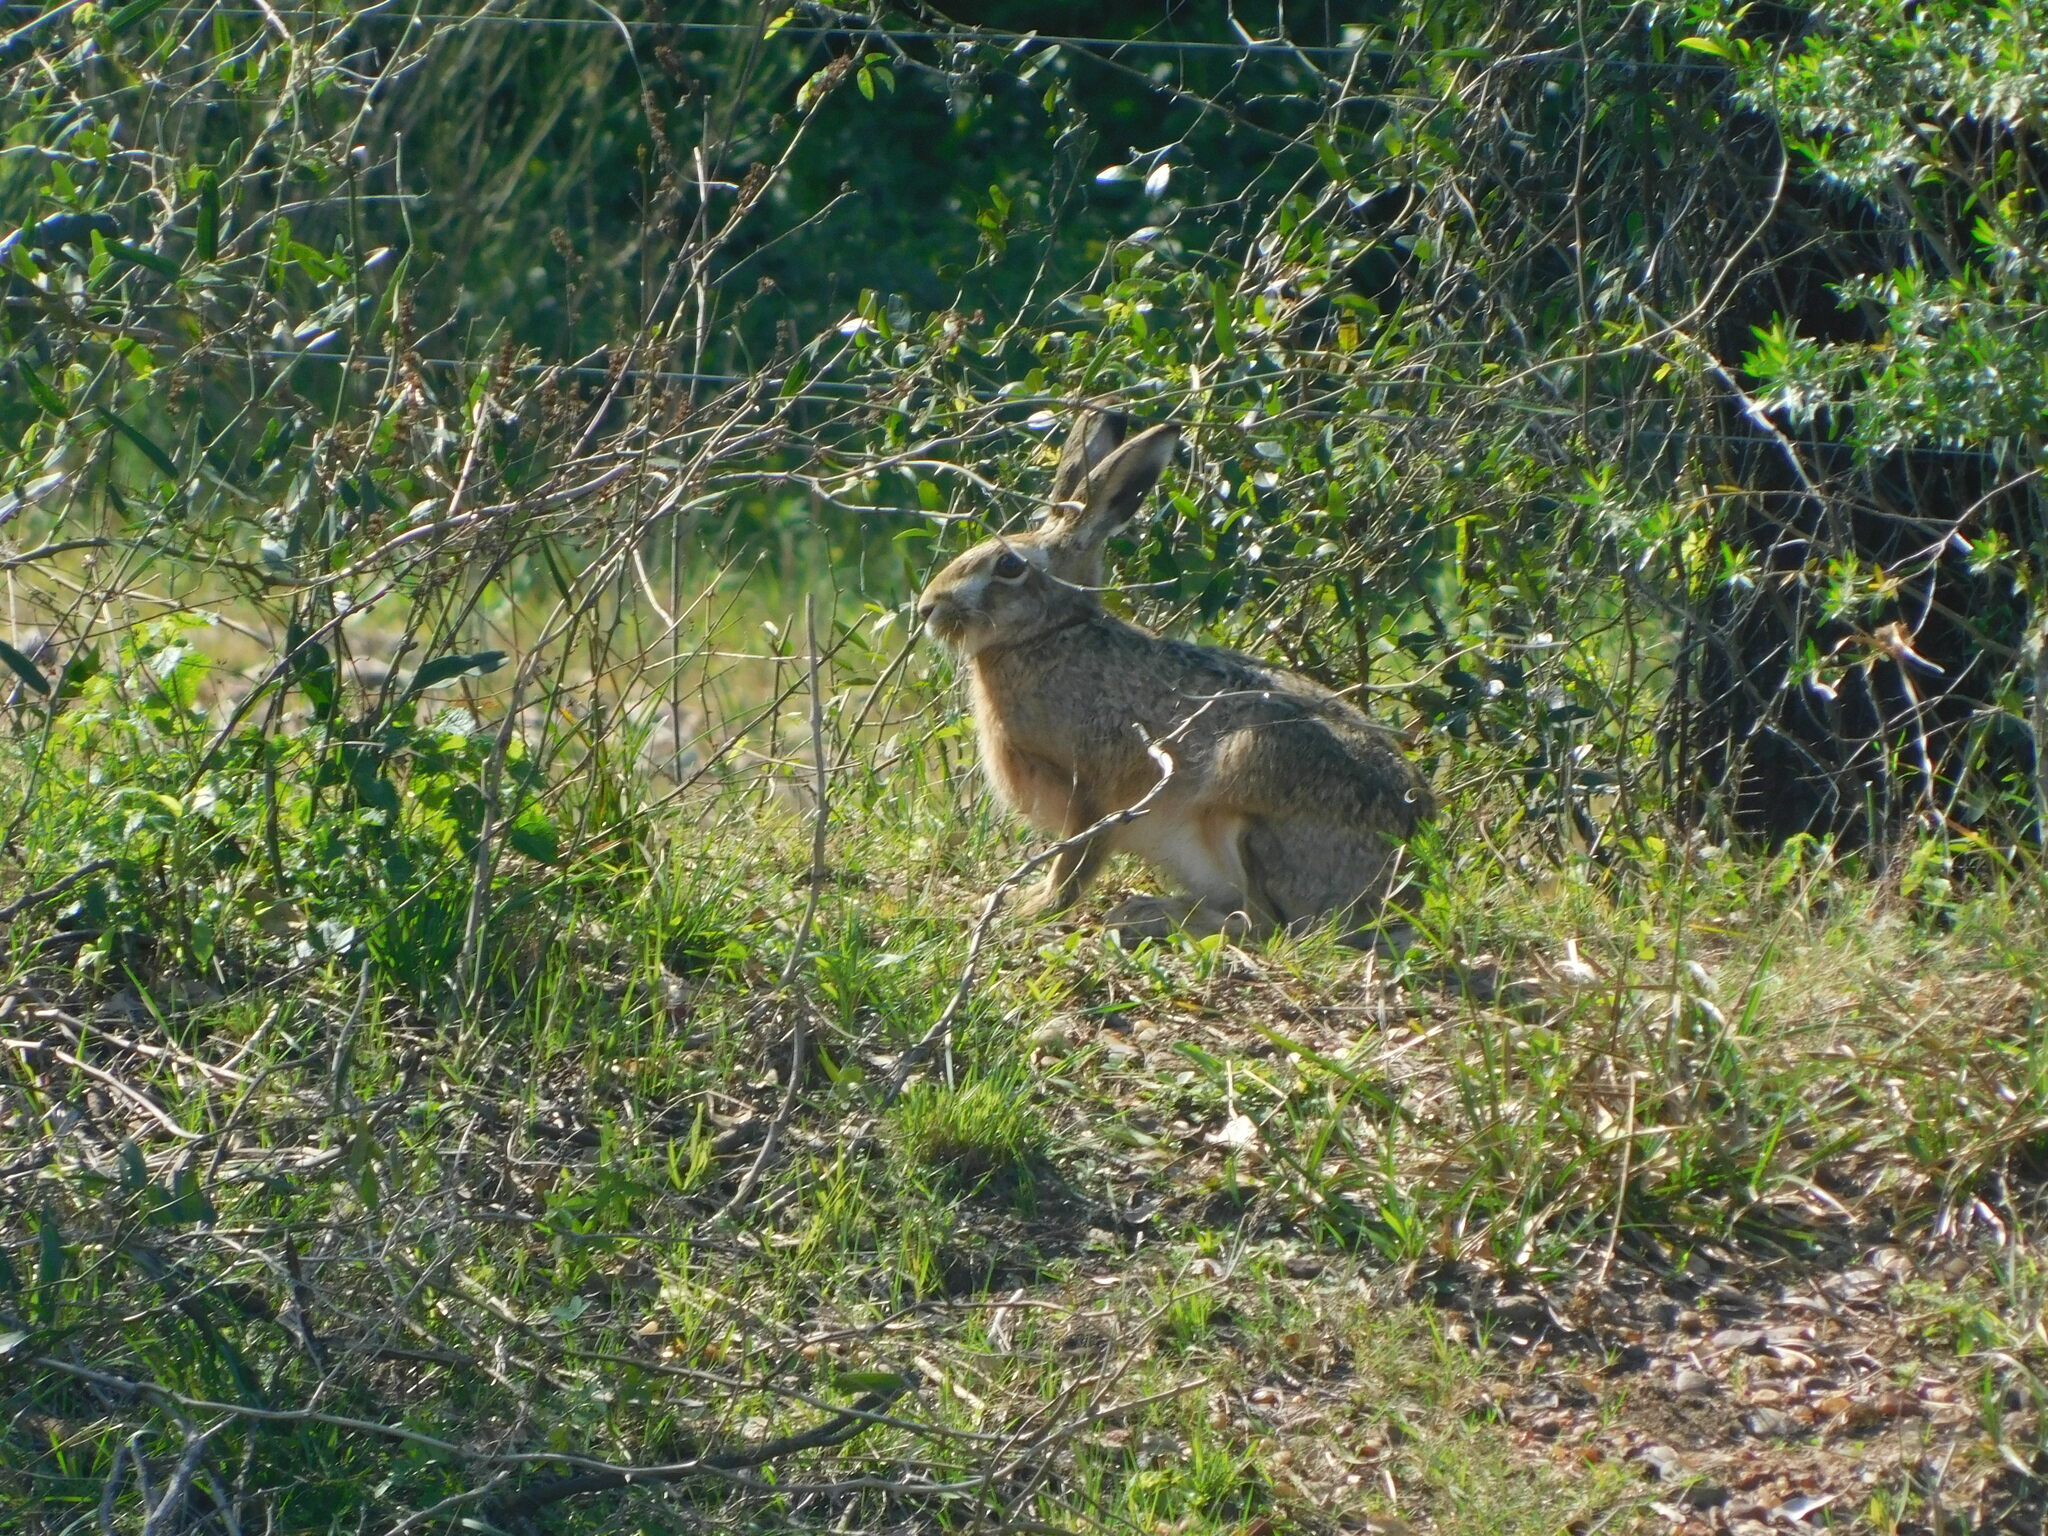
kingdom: Animalia
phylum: Chordata
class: Mammalia
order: Lagomorpha
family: Leporidae
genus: Lepus
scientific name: Lepus europaeus
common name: European hare
